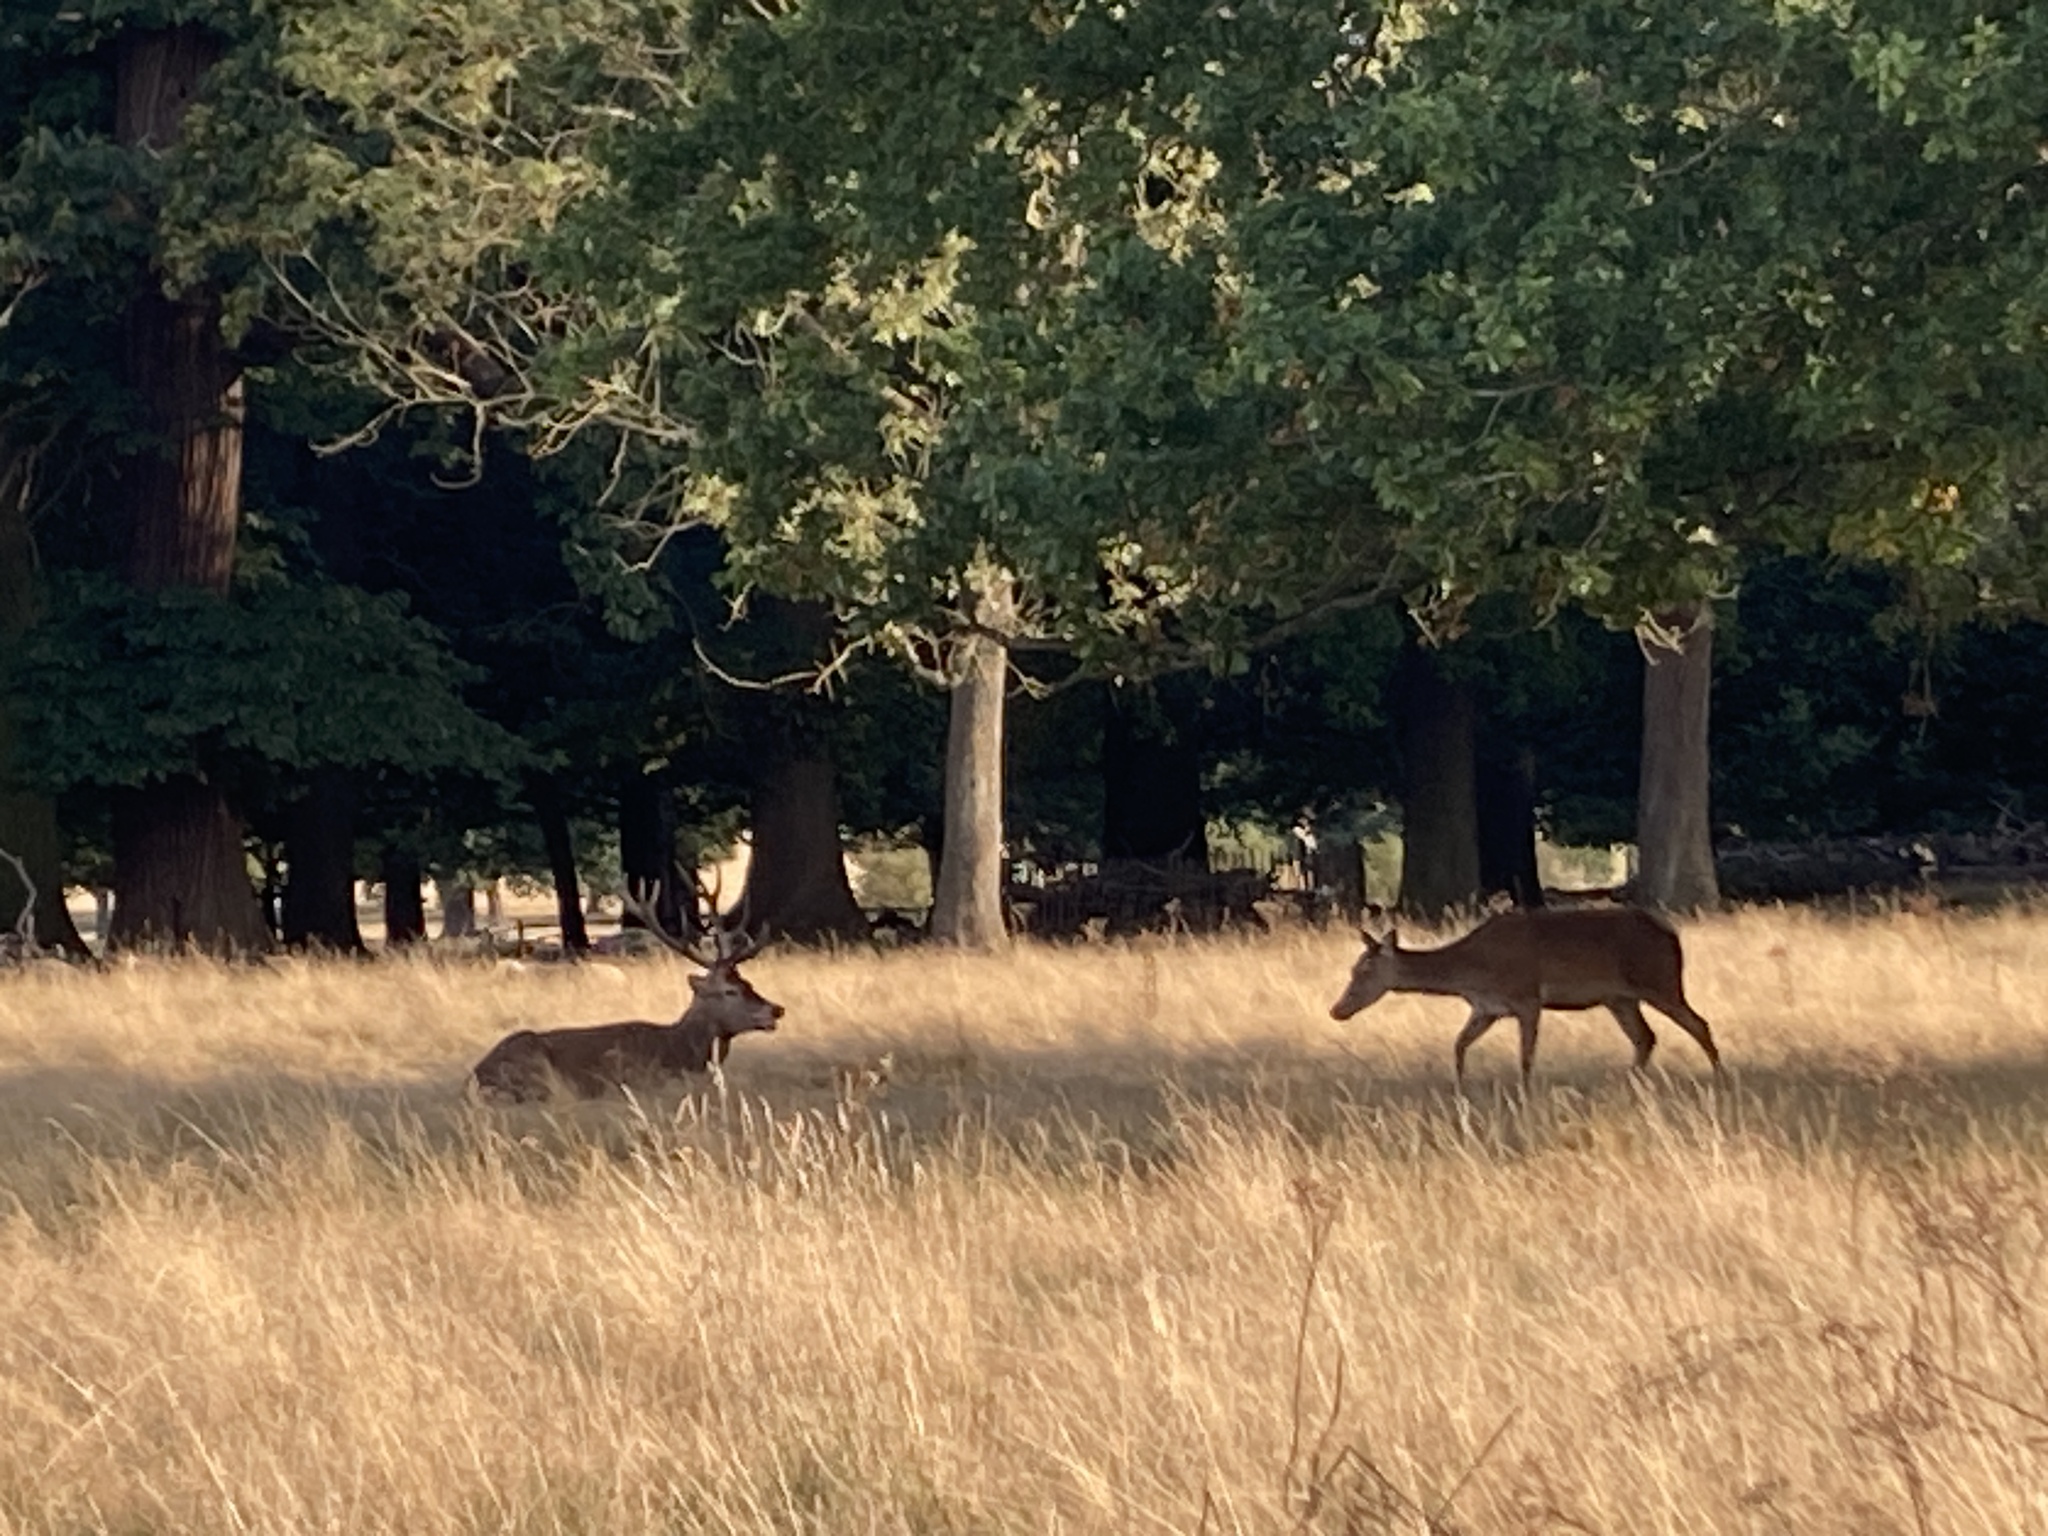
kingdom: Animalia
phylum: Chordata
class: Mammalia
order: Artiodactyla
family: Cervidae
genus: Cervus
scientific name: Cervus elaphus
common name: Red deer
